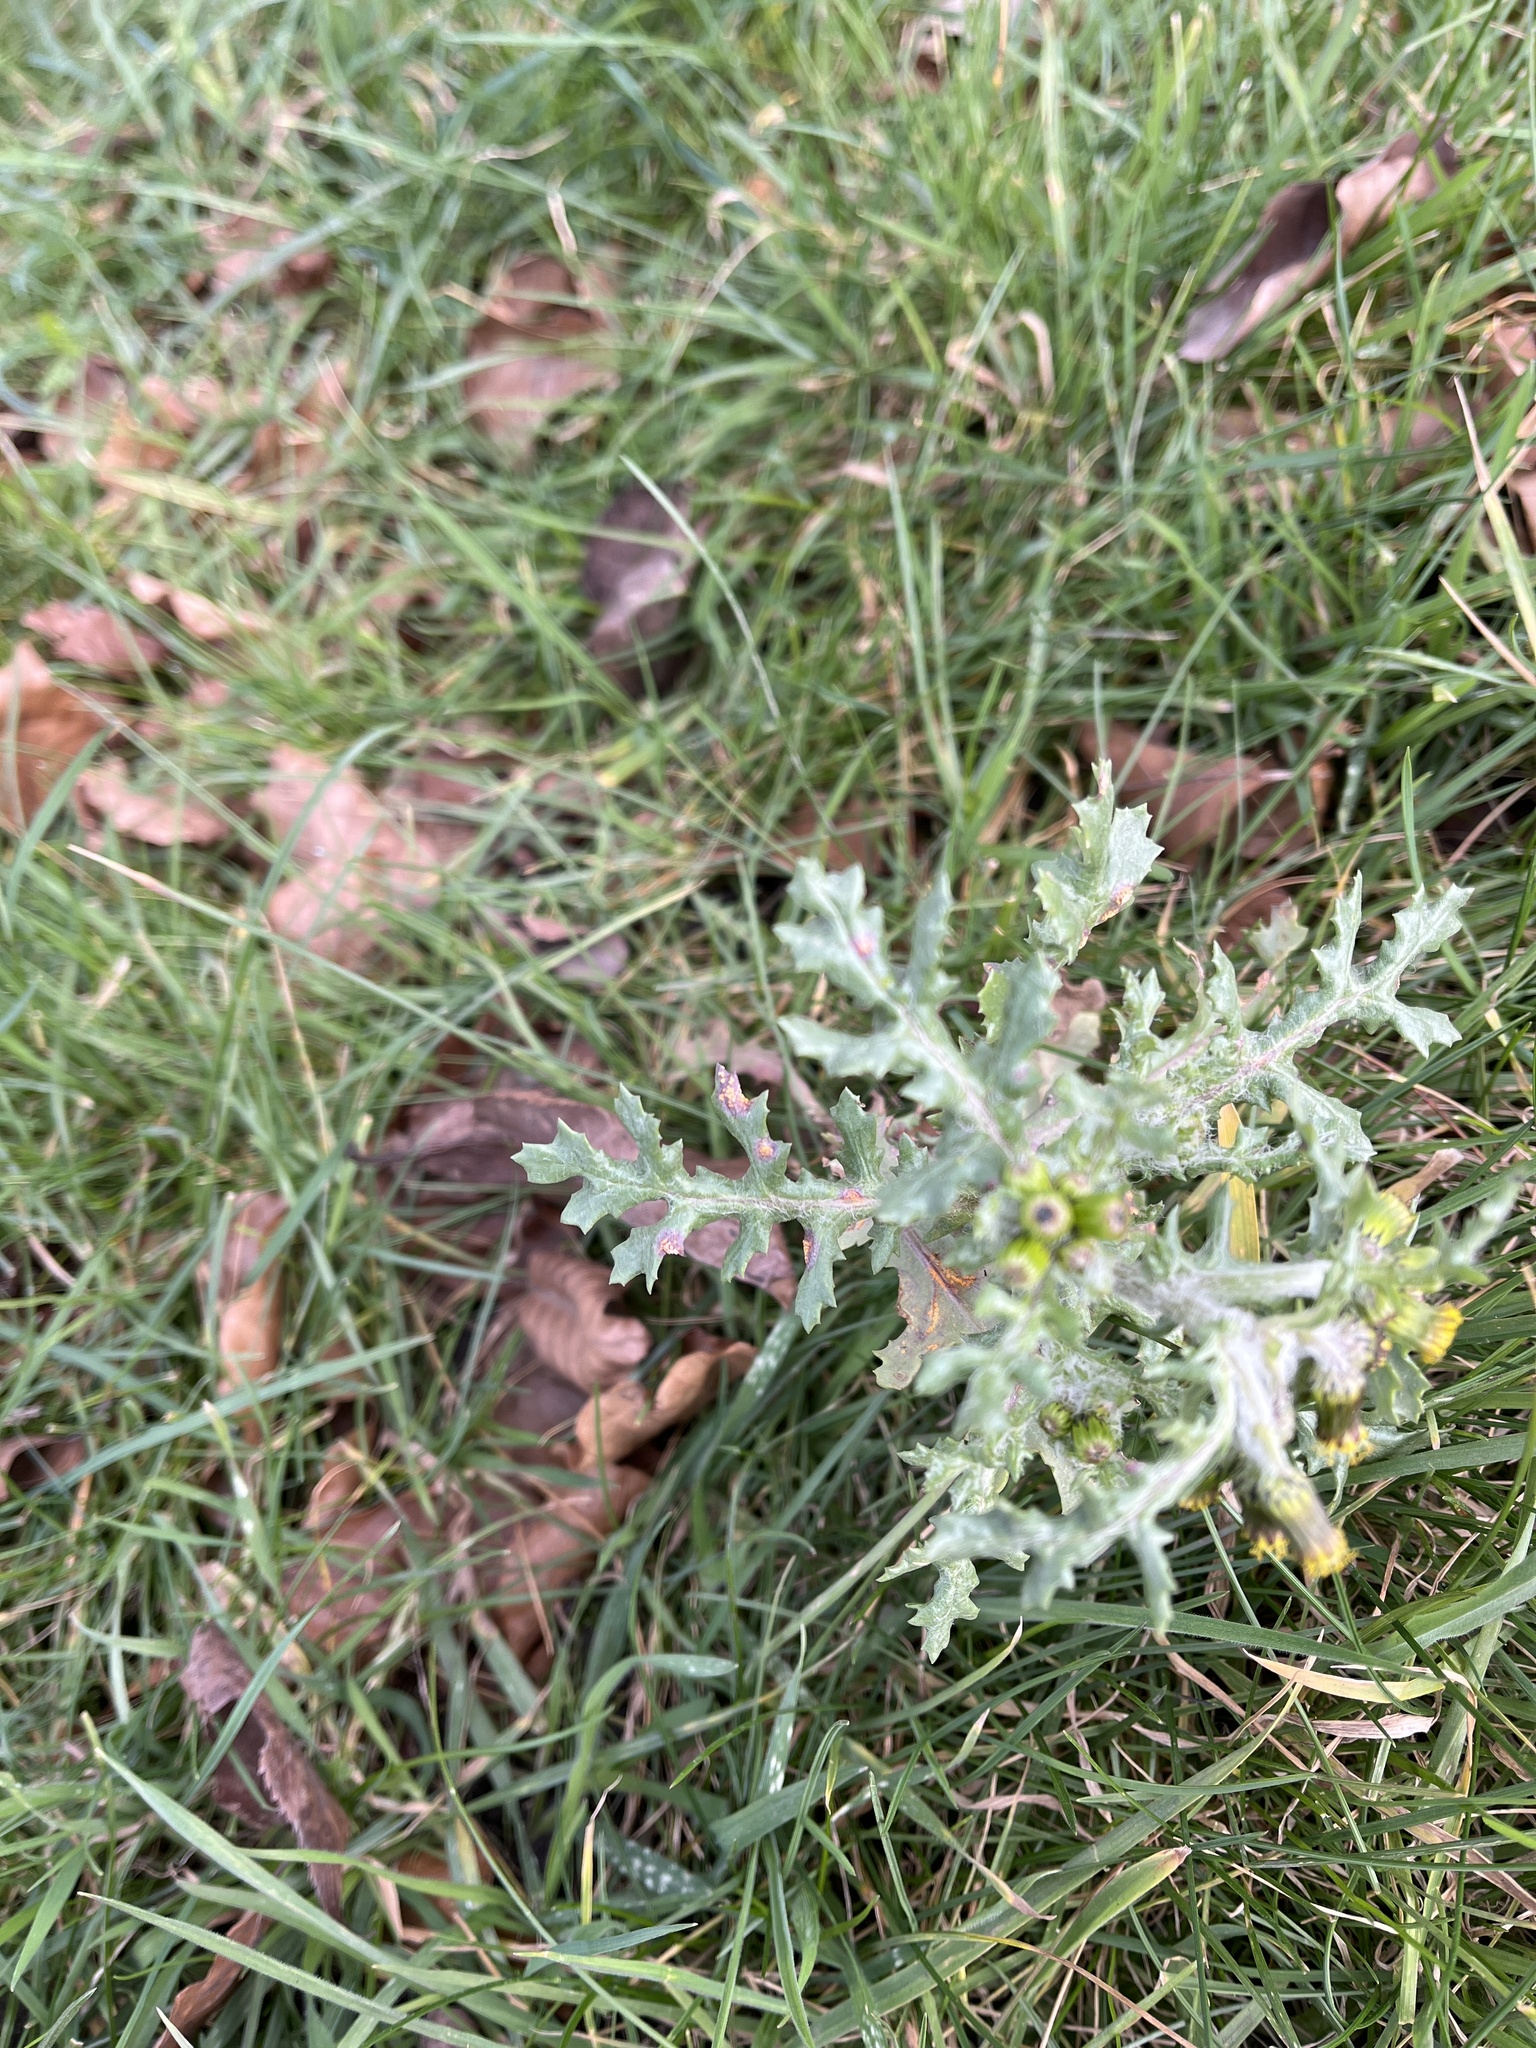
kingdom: Fungi
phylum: Basidiomycota
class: Pucciniomycetes
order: Pucciniales
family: Pucciniaceae
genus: Puccinia
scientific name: Puccinia lagenophorae
